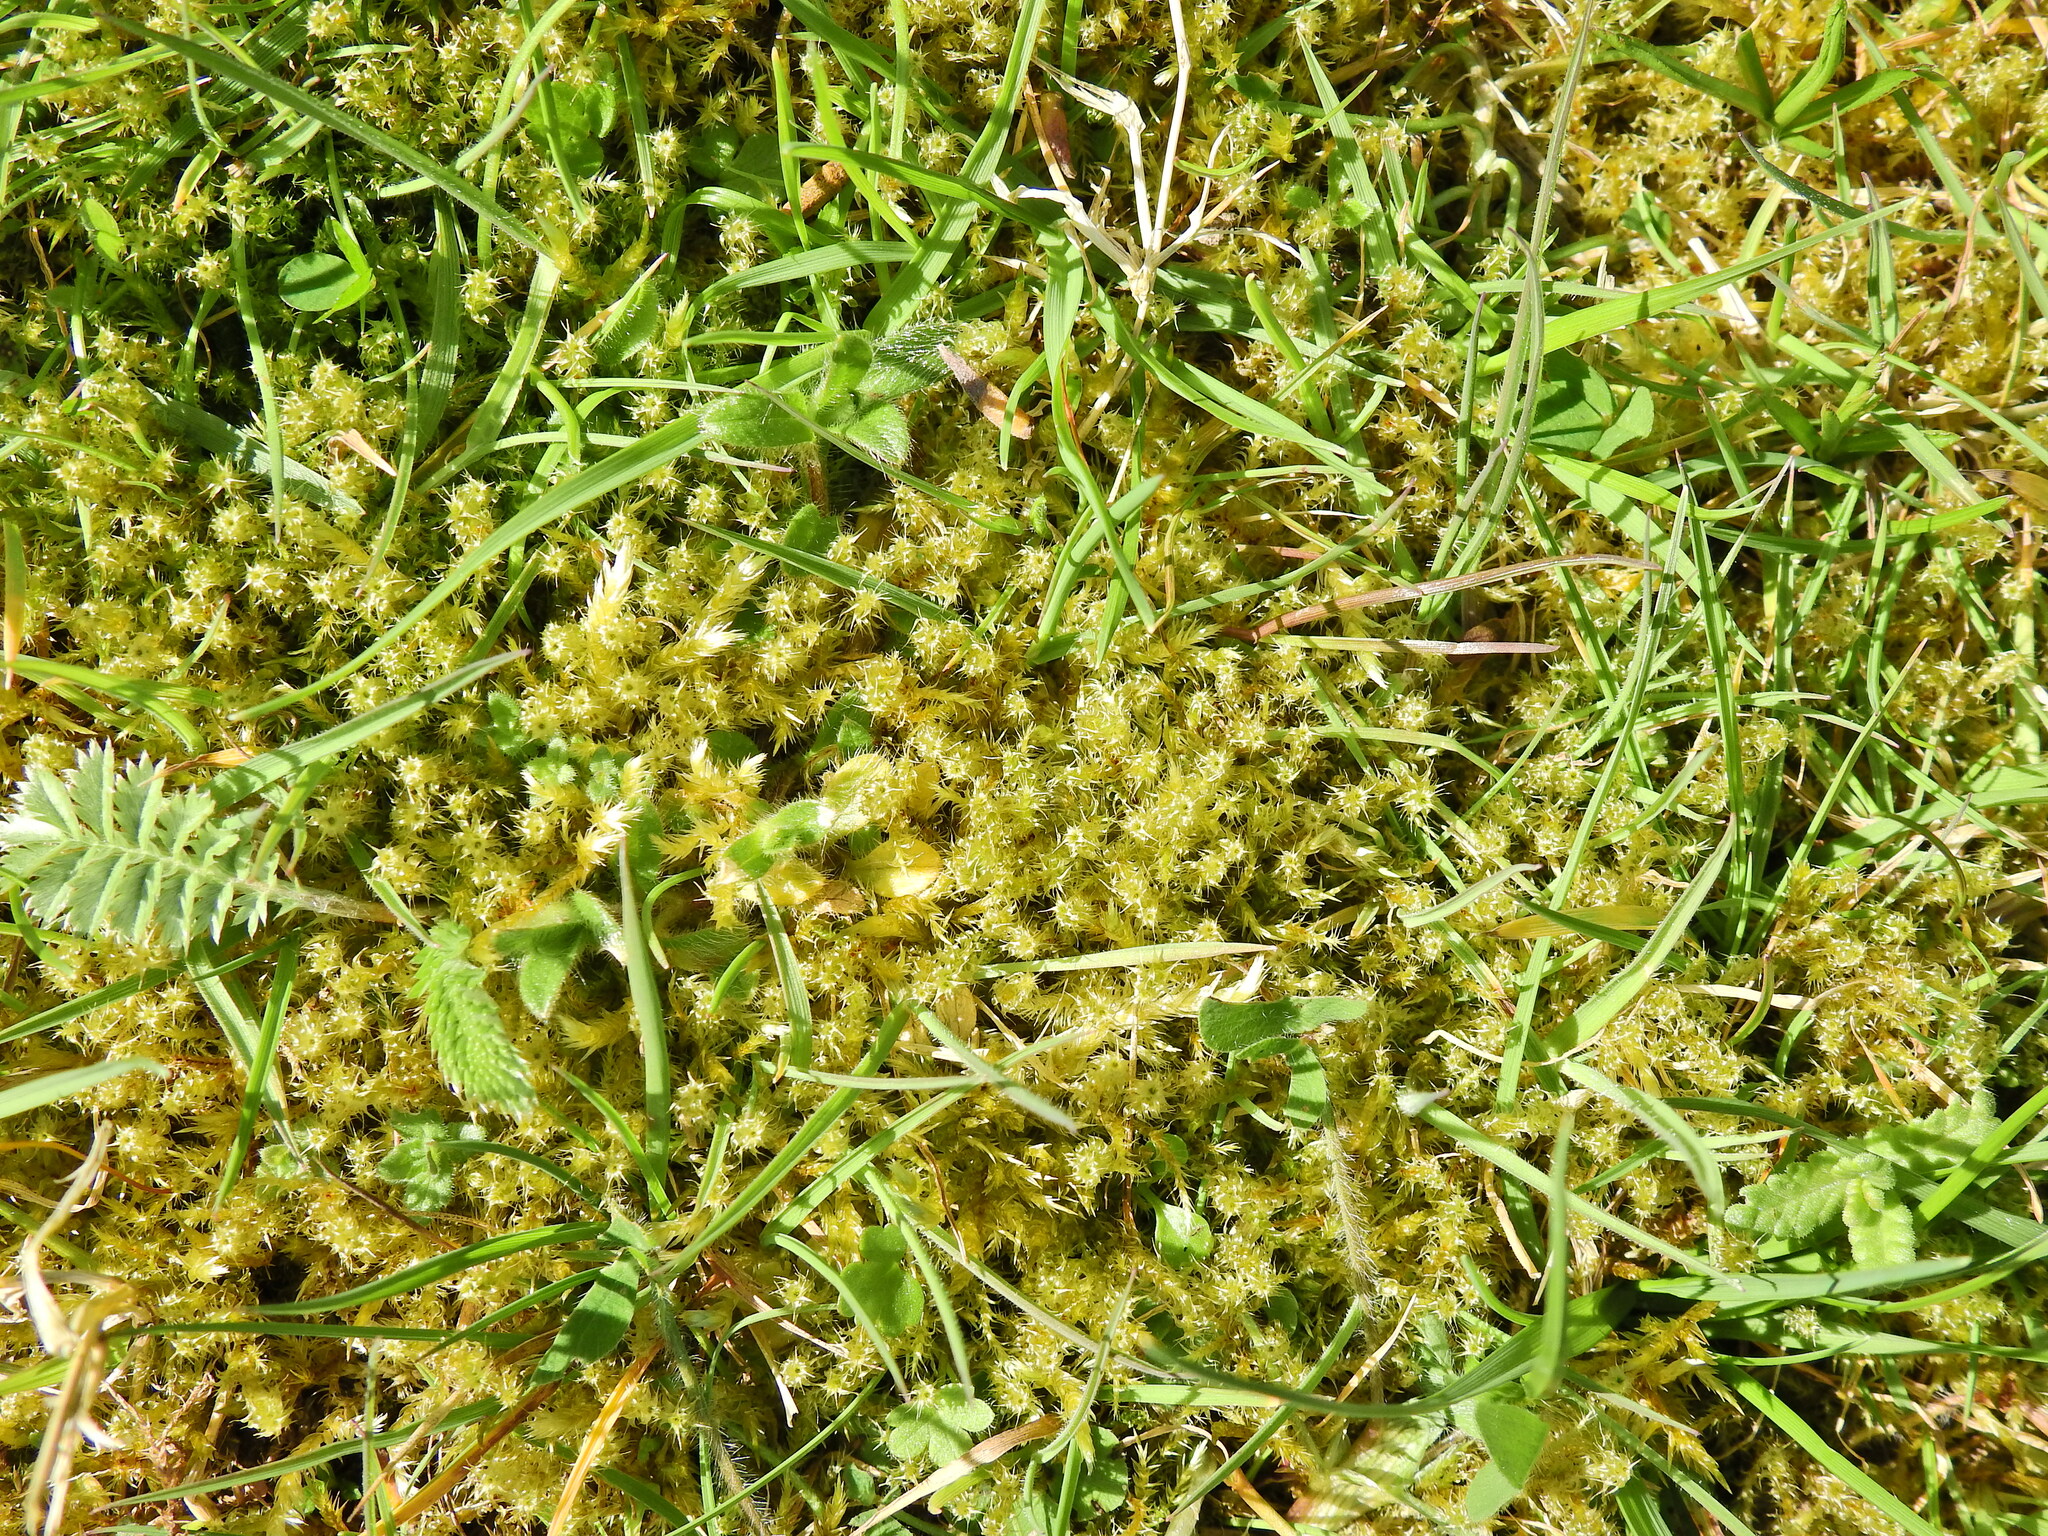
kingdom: Plantae
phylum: Bryophyta
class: Bryopsida
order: Hypnales
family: Hylocomiaceae
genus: Rhytidiadelphus
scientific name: Rhytidiadelphus squarrosus
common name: Springy turf-moss
